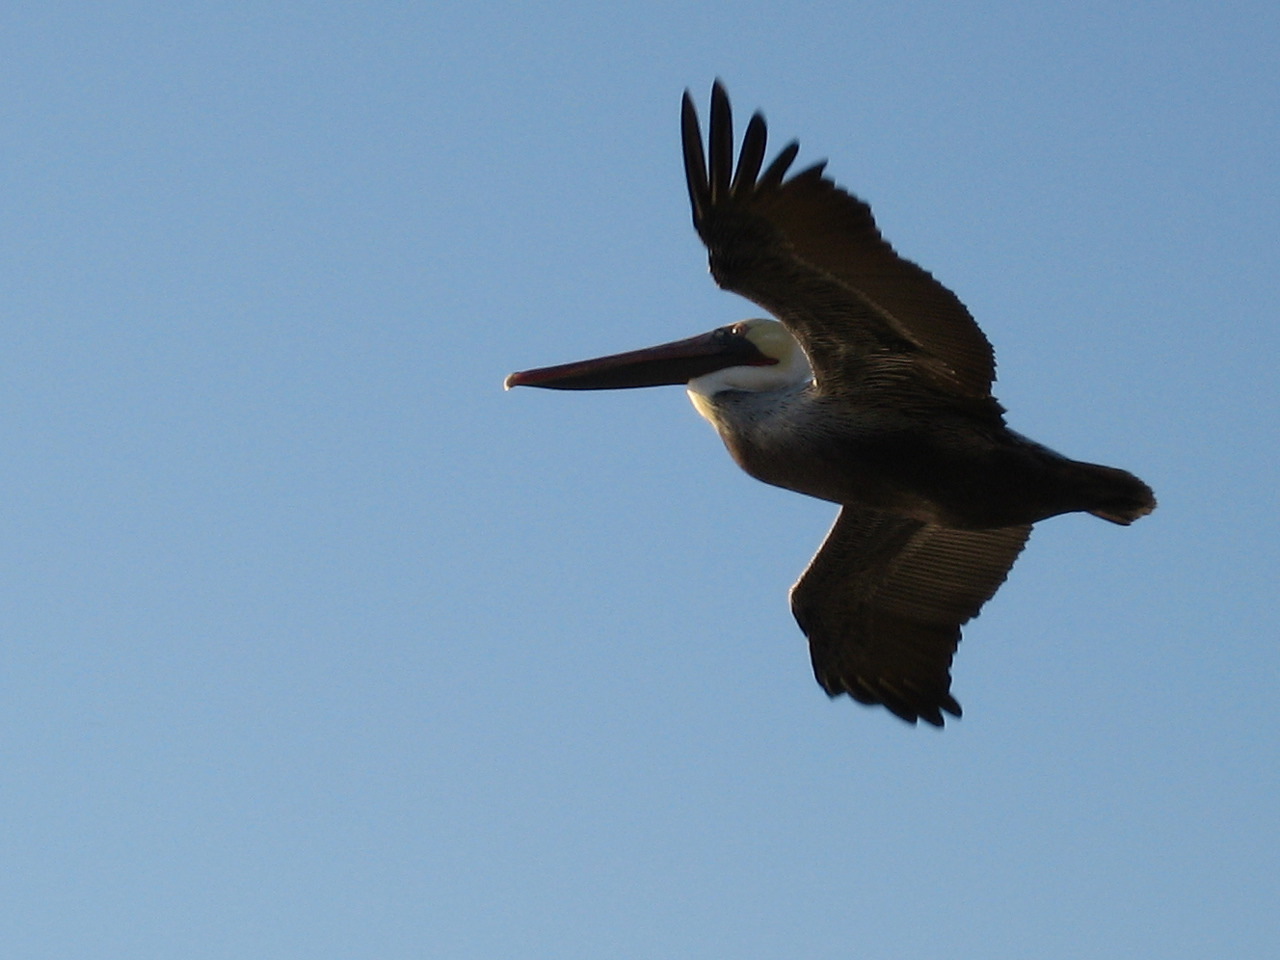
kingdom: Animalia
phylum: Chordata
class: Aves
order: Pelecaniformes
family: Pelecanidae
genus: Pelecanus
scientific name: Pelecanus occidentalis
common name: Brown pelican
